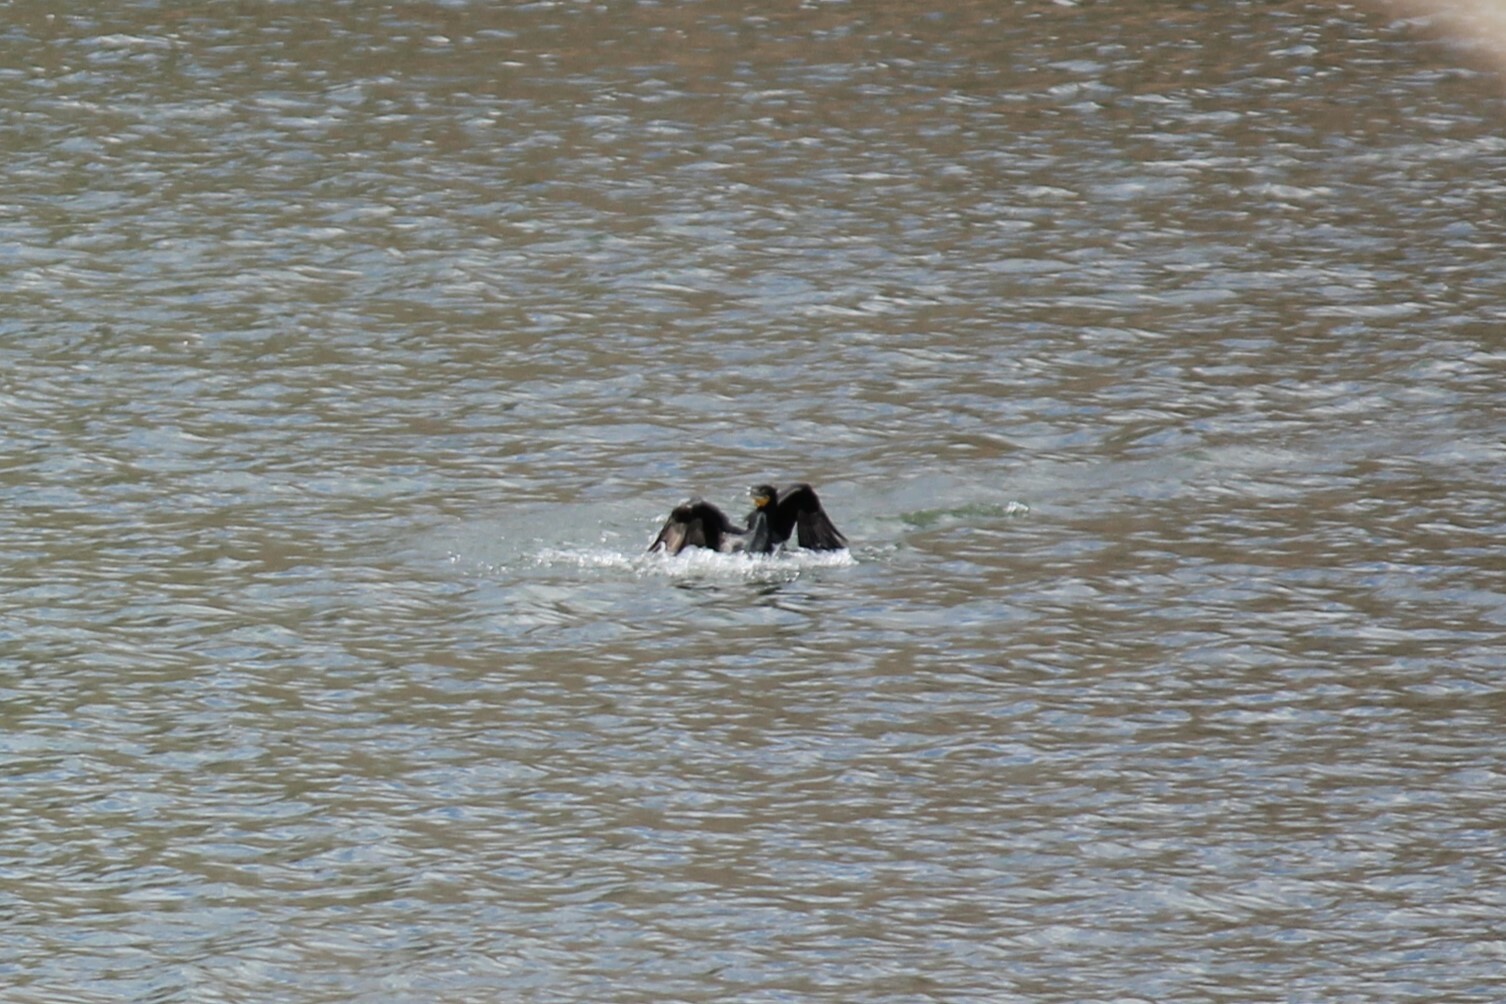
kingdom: Animalia
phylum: Chordata
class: Aves
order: Suliformes
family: Phalacrocoracidae
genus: Phalacrocorax
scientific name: Phalacrocorax auritus
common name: Double-crested cormorant
